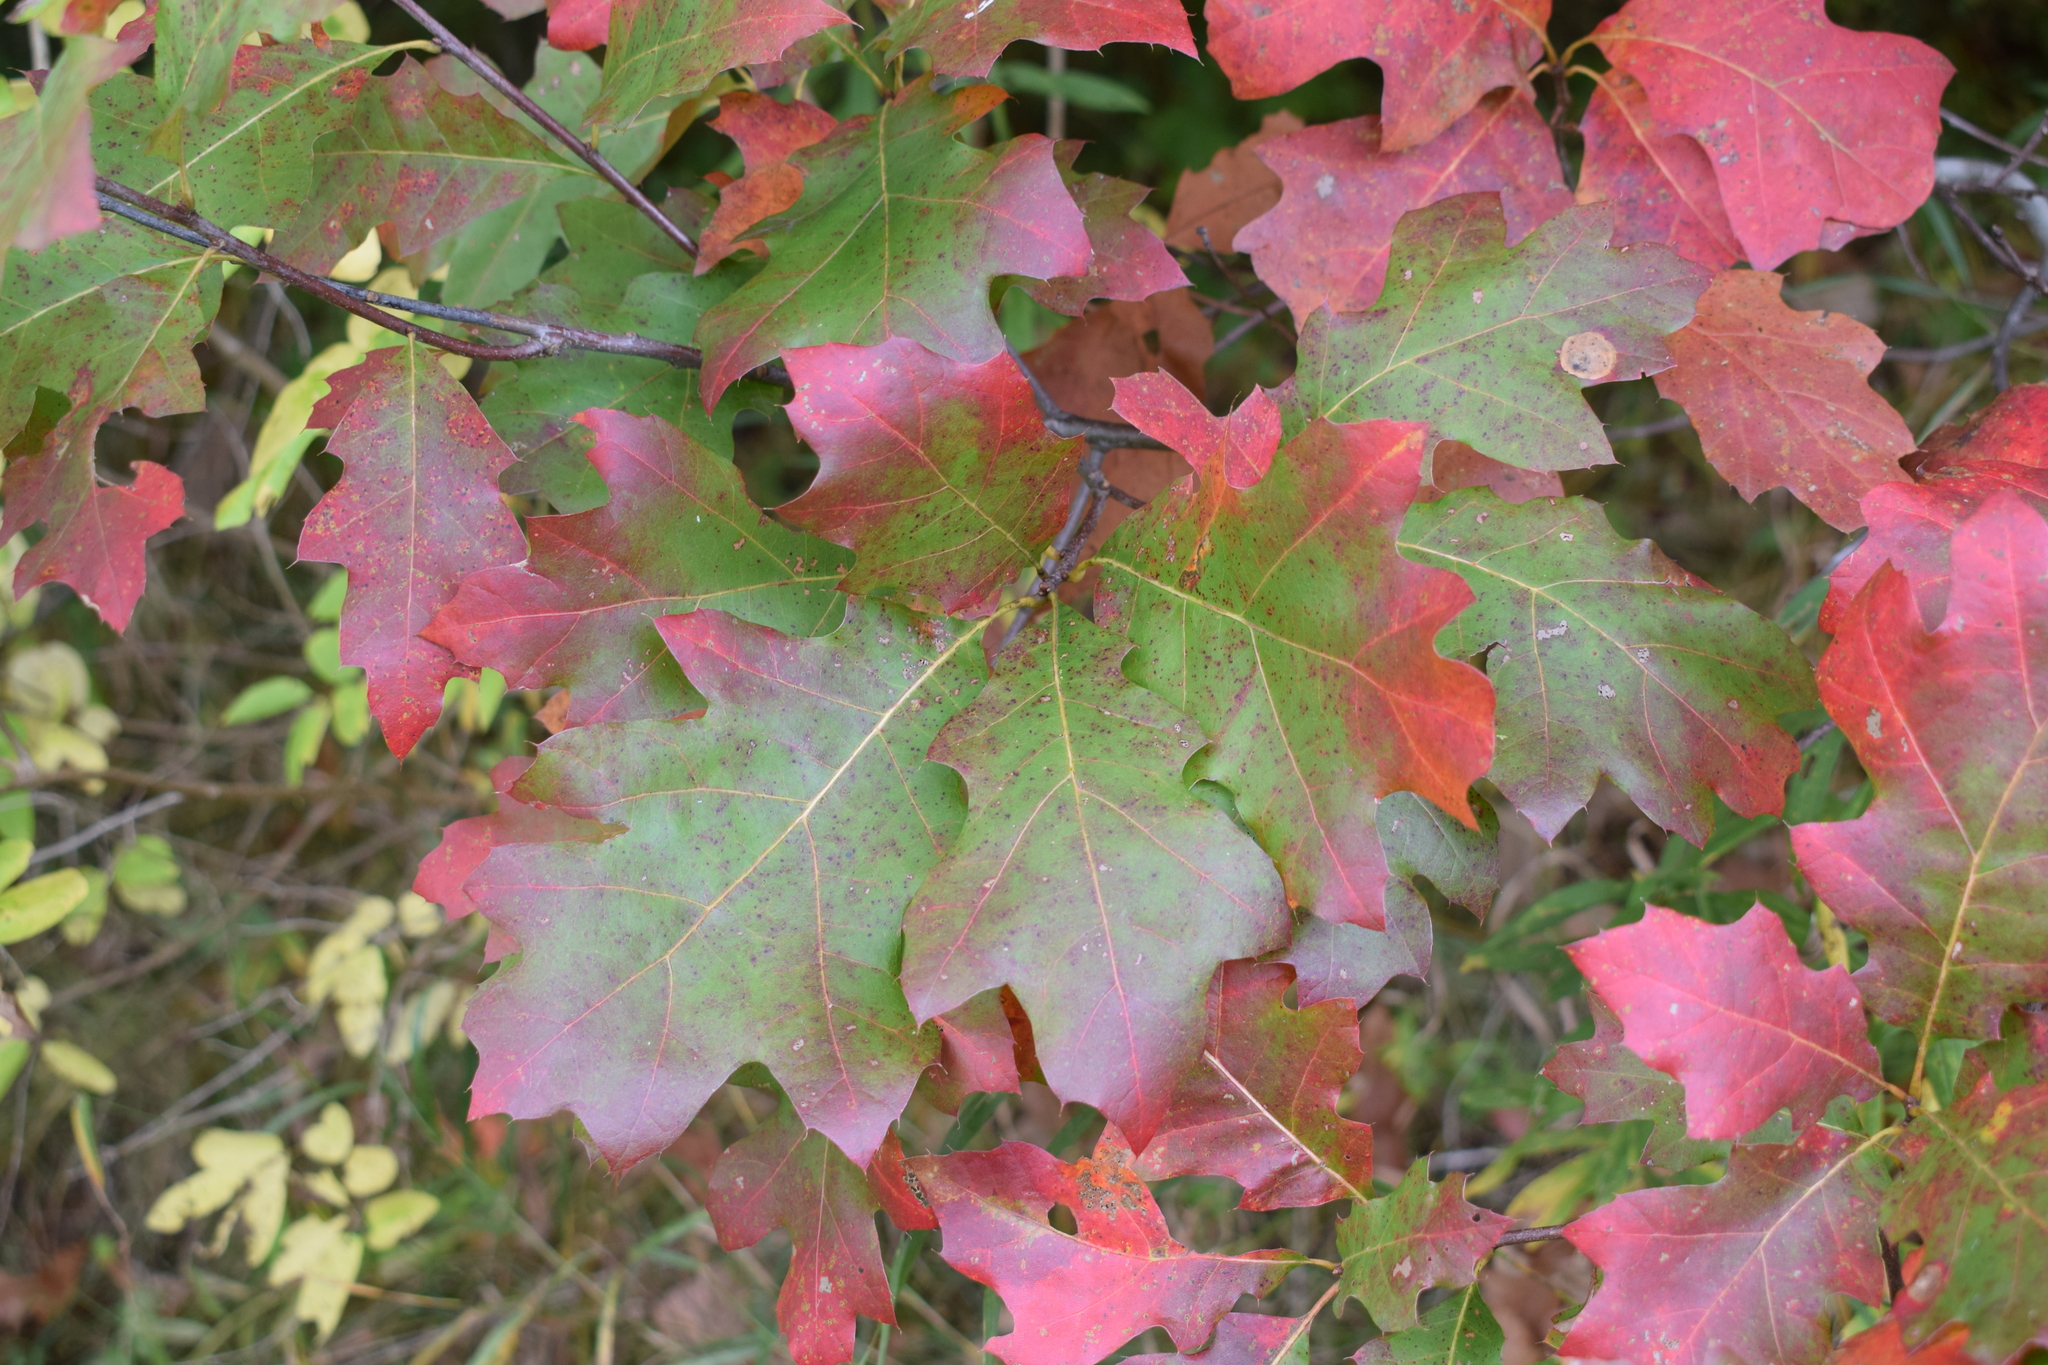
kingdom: Plantae
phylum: Tracheophyta
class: Magnoliopsida
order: Fagales
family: Fagaceae
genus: Quercus
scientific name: Quercus rubra
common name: Red oak
